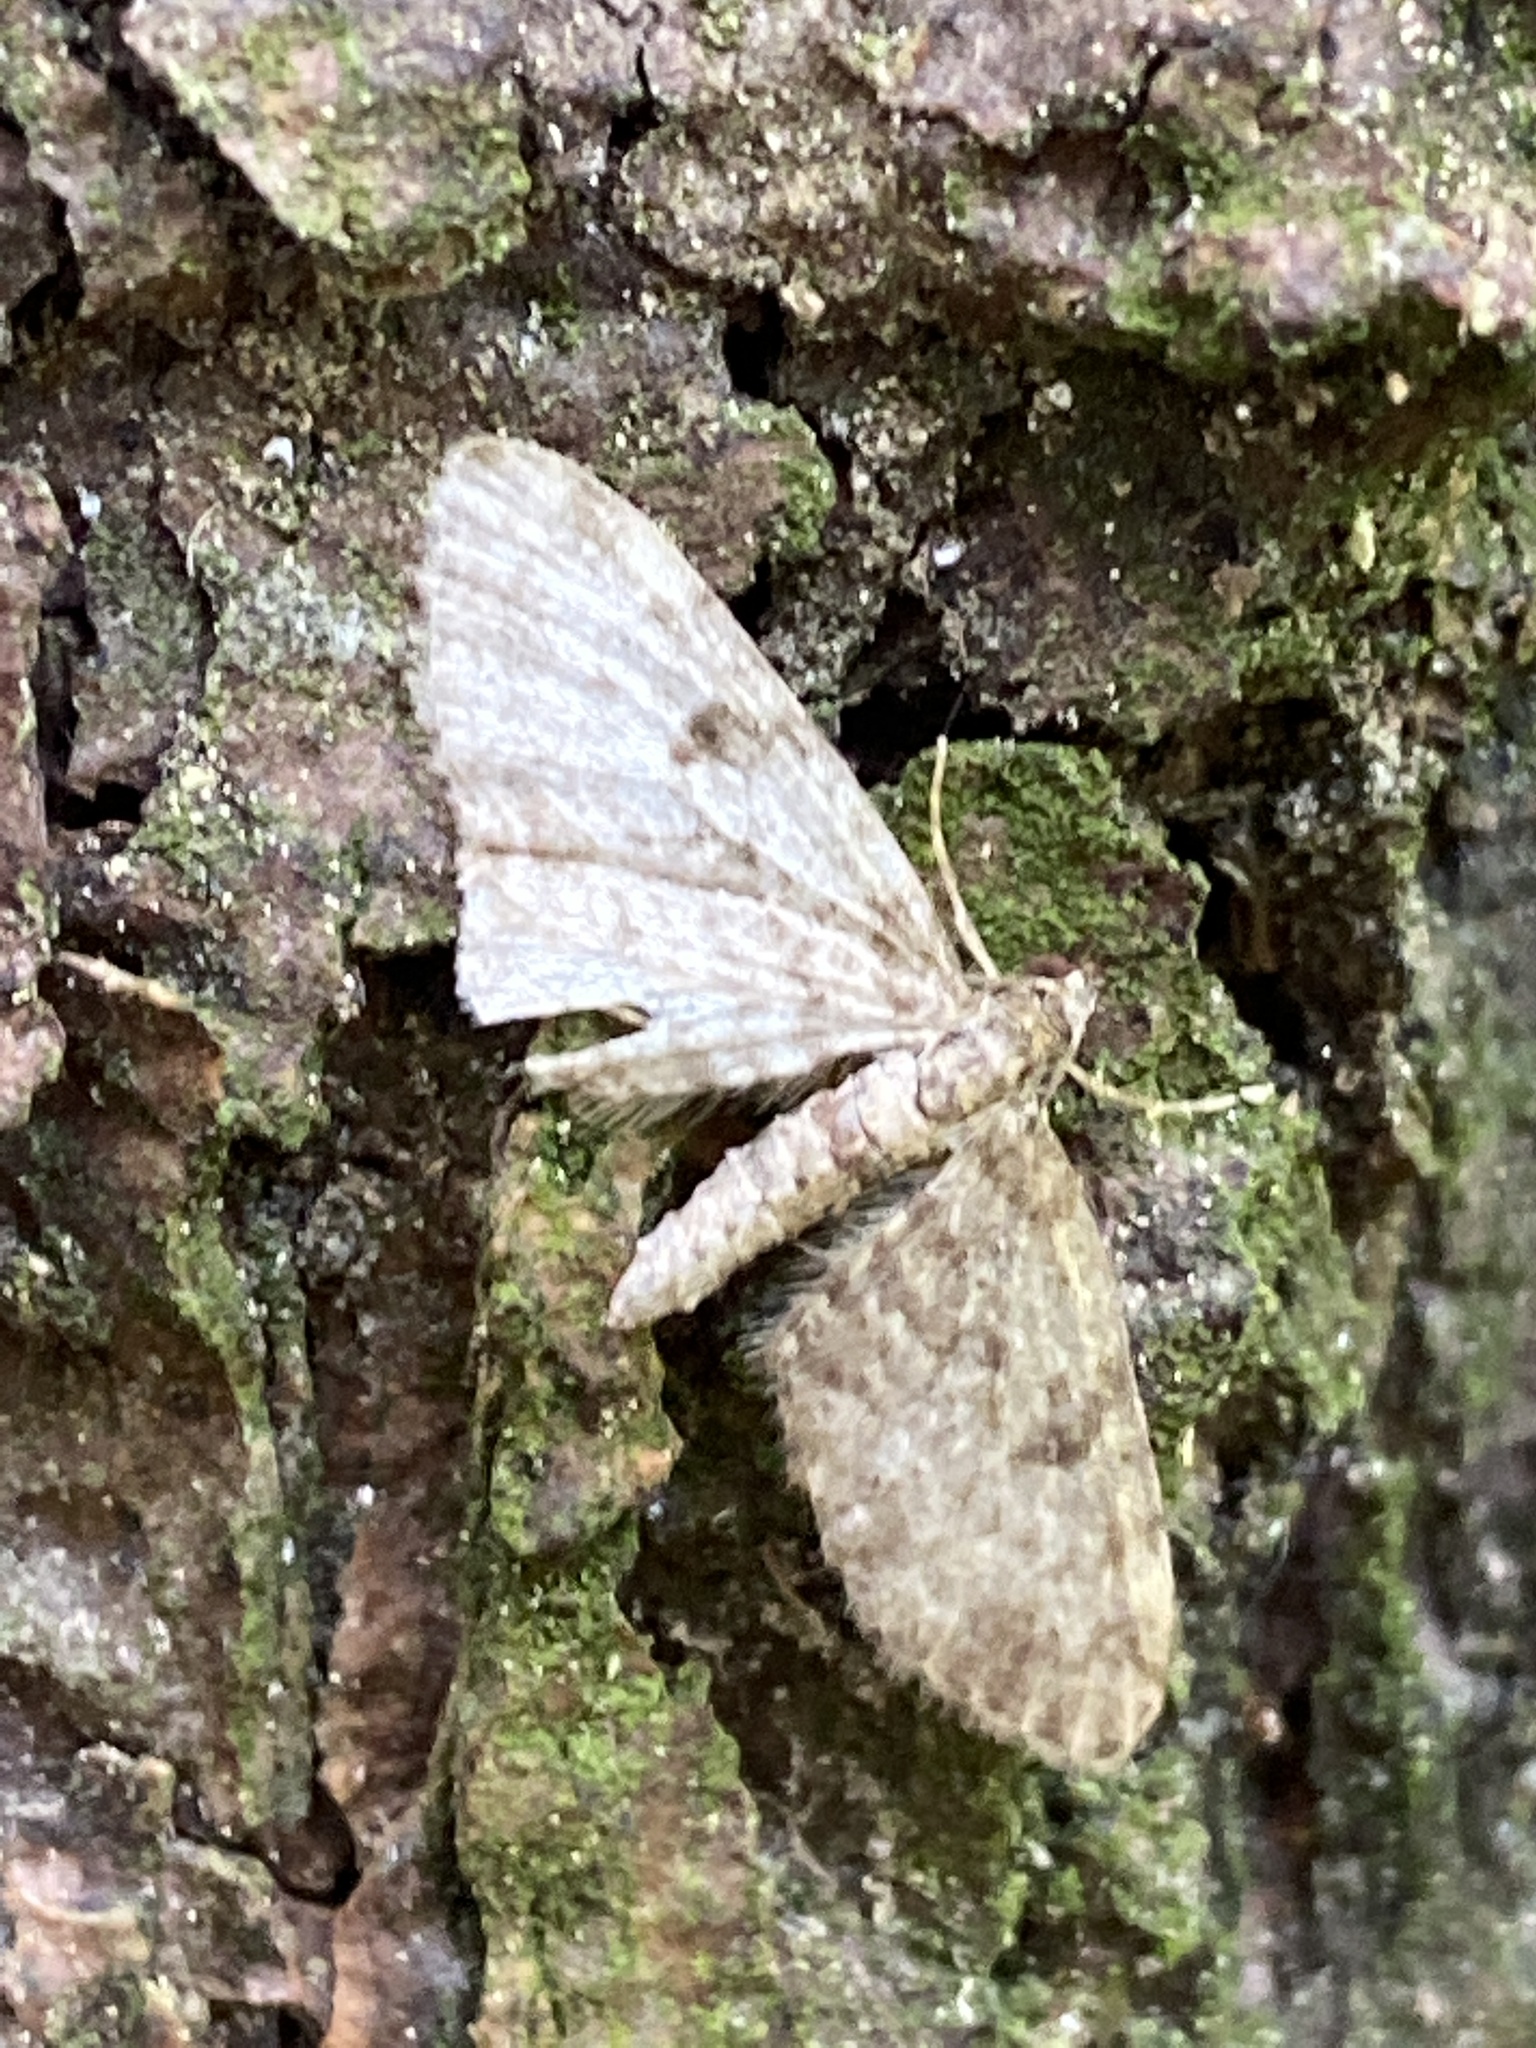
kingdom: Animalia
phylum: Arthropoda
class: Insecta
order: Lepidoptera
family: Geometridae
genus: Eupithecia
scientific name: Eupithecia tantillaria
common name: Dwarf pug
